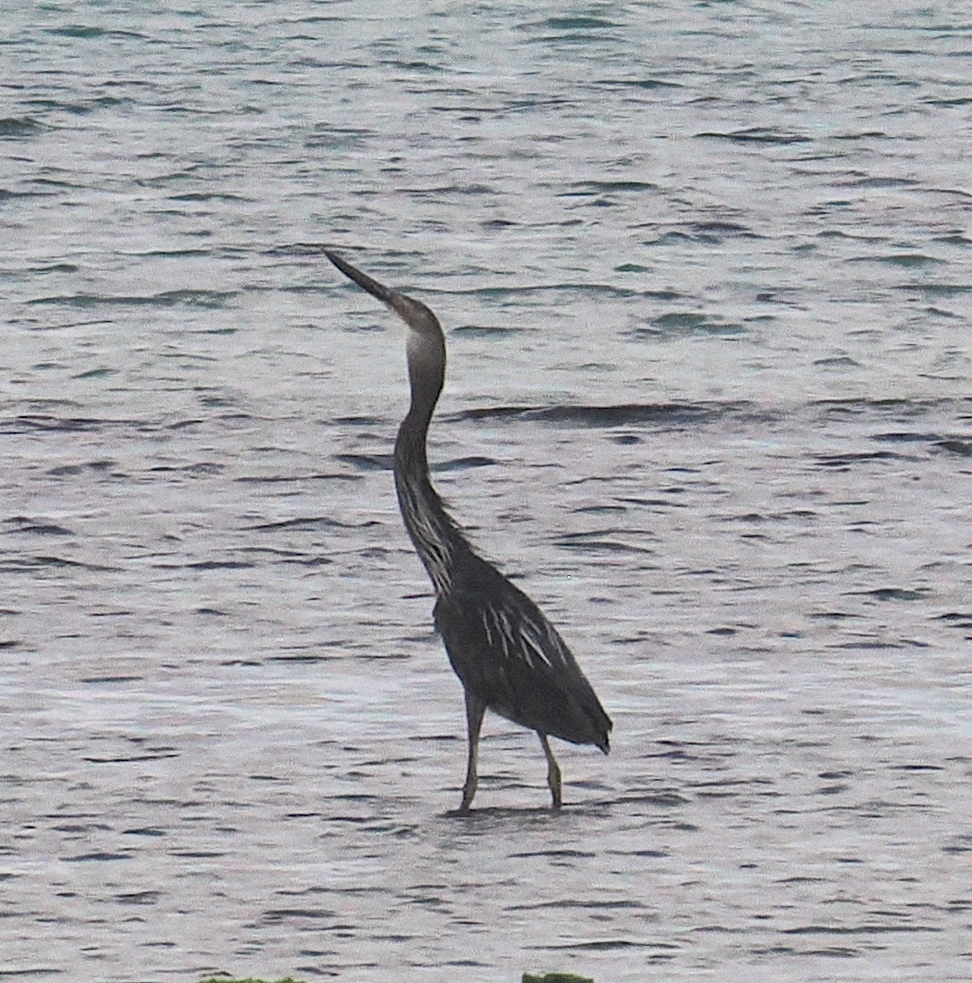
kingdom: Animalia
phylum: Chordata
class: Aves
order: Pelecaniformes
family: Ardeidae
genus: Ardea
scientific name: Ardea sumatrana
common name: Great-billed heron
